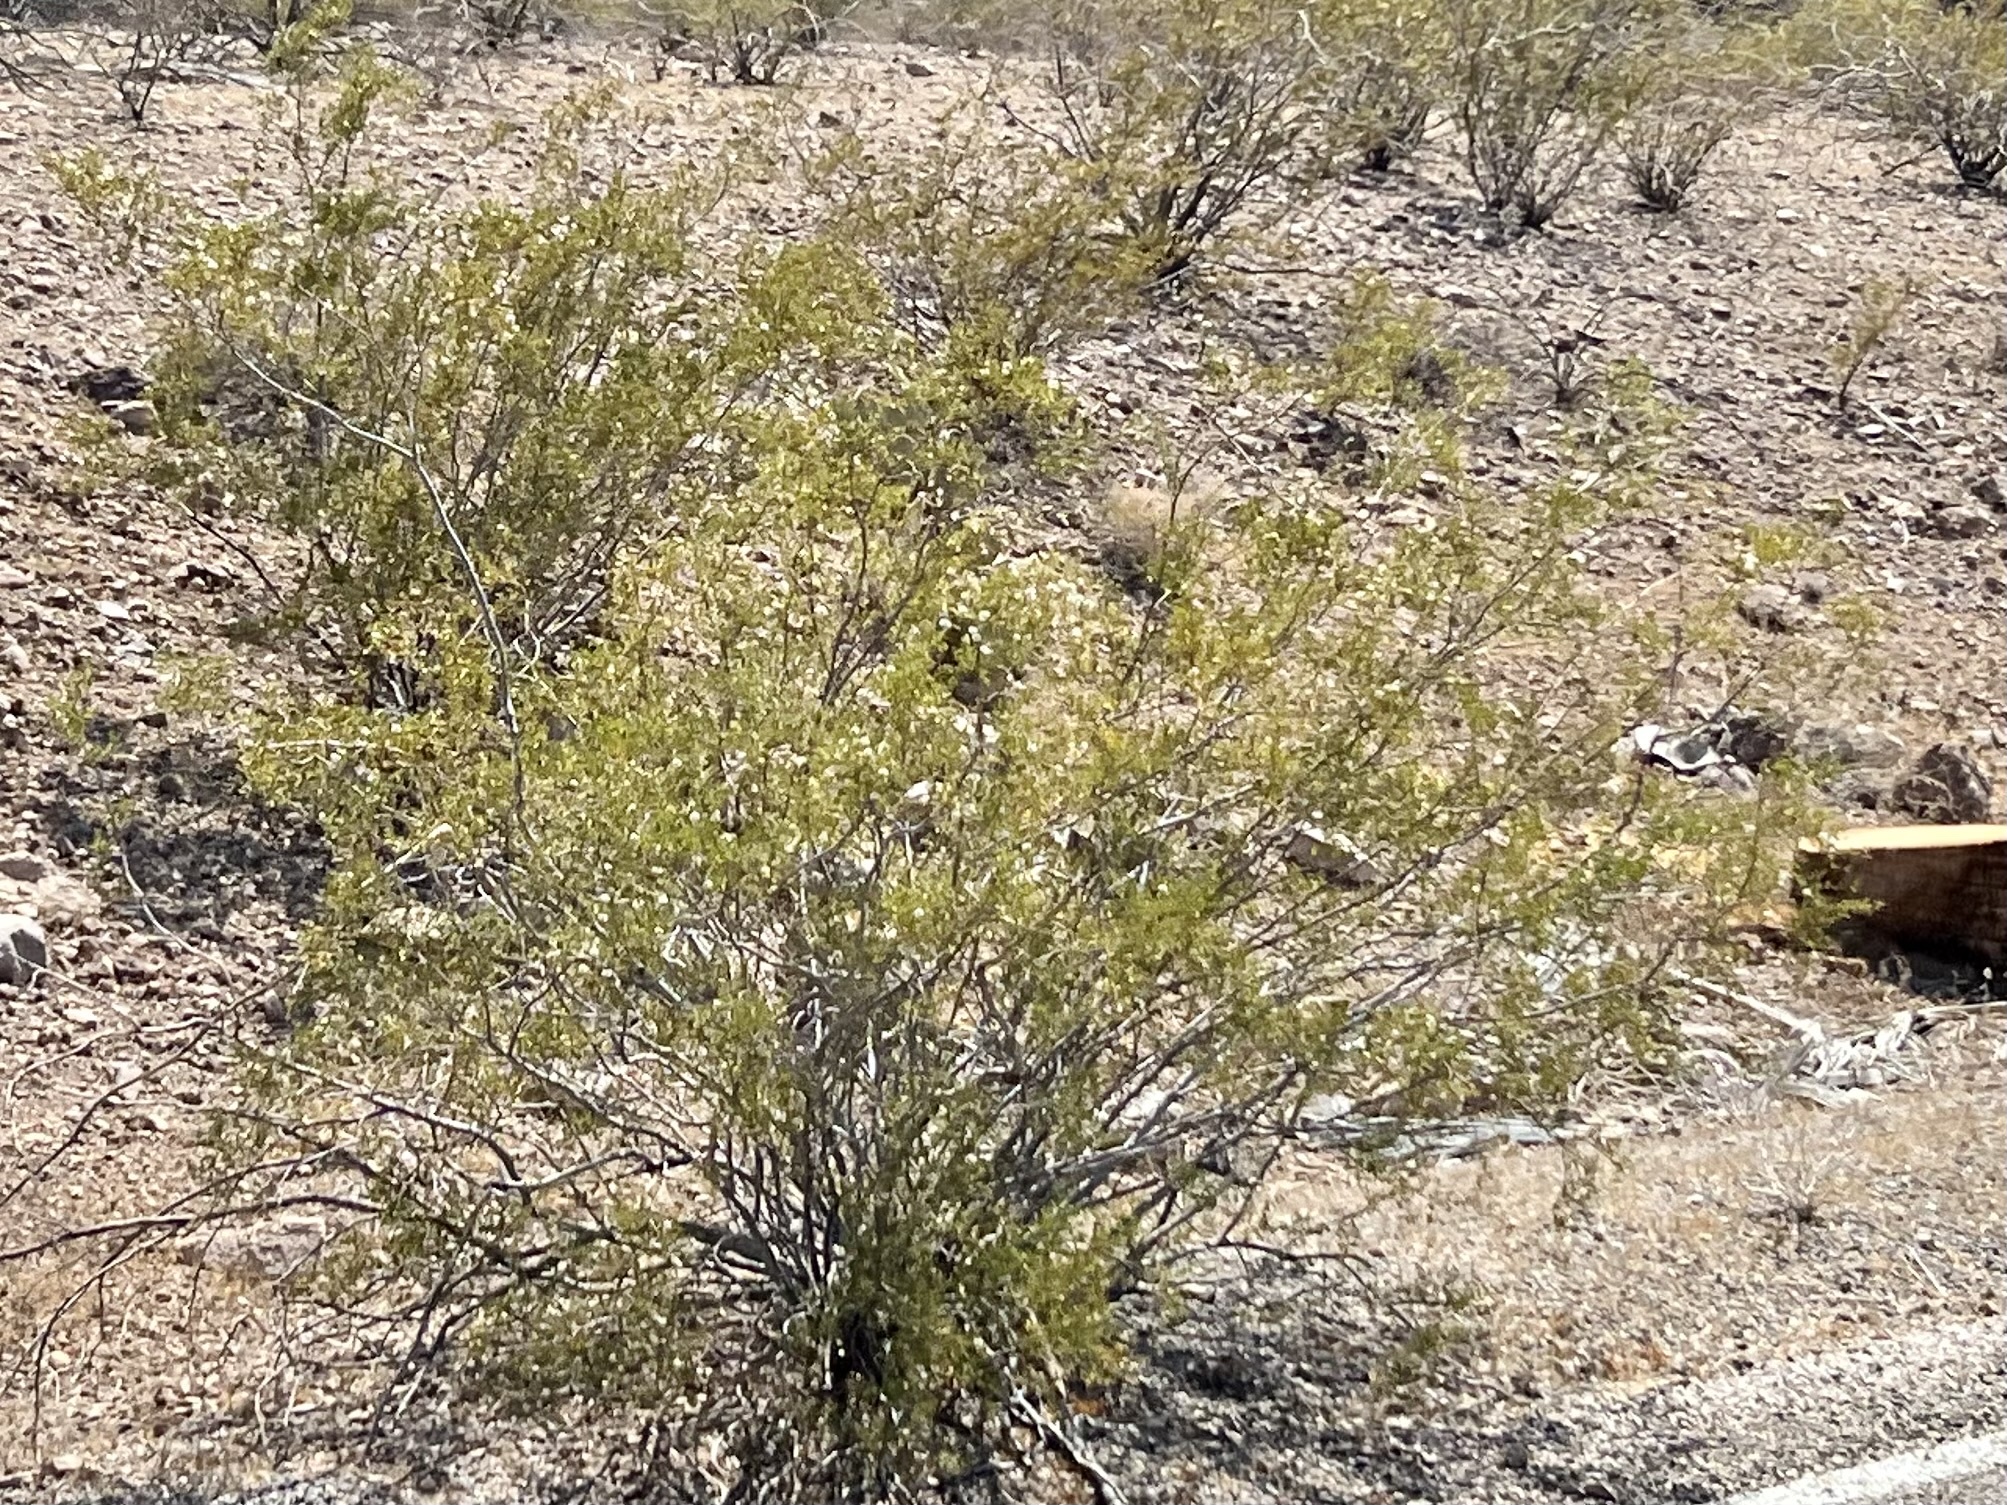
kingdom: Plantae
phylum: Tracheophyta
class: Magnoliopsida
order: Zygophyllales
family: Zygophyllaceae
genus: Larrea
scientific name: Larrea tridentata
